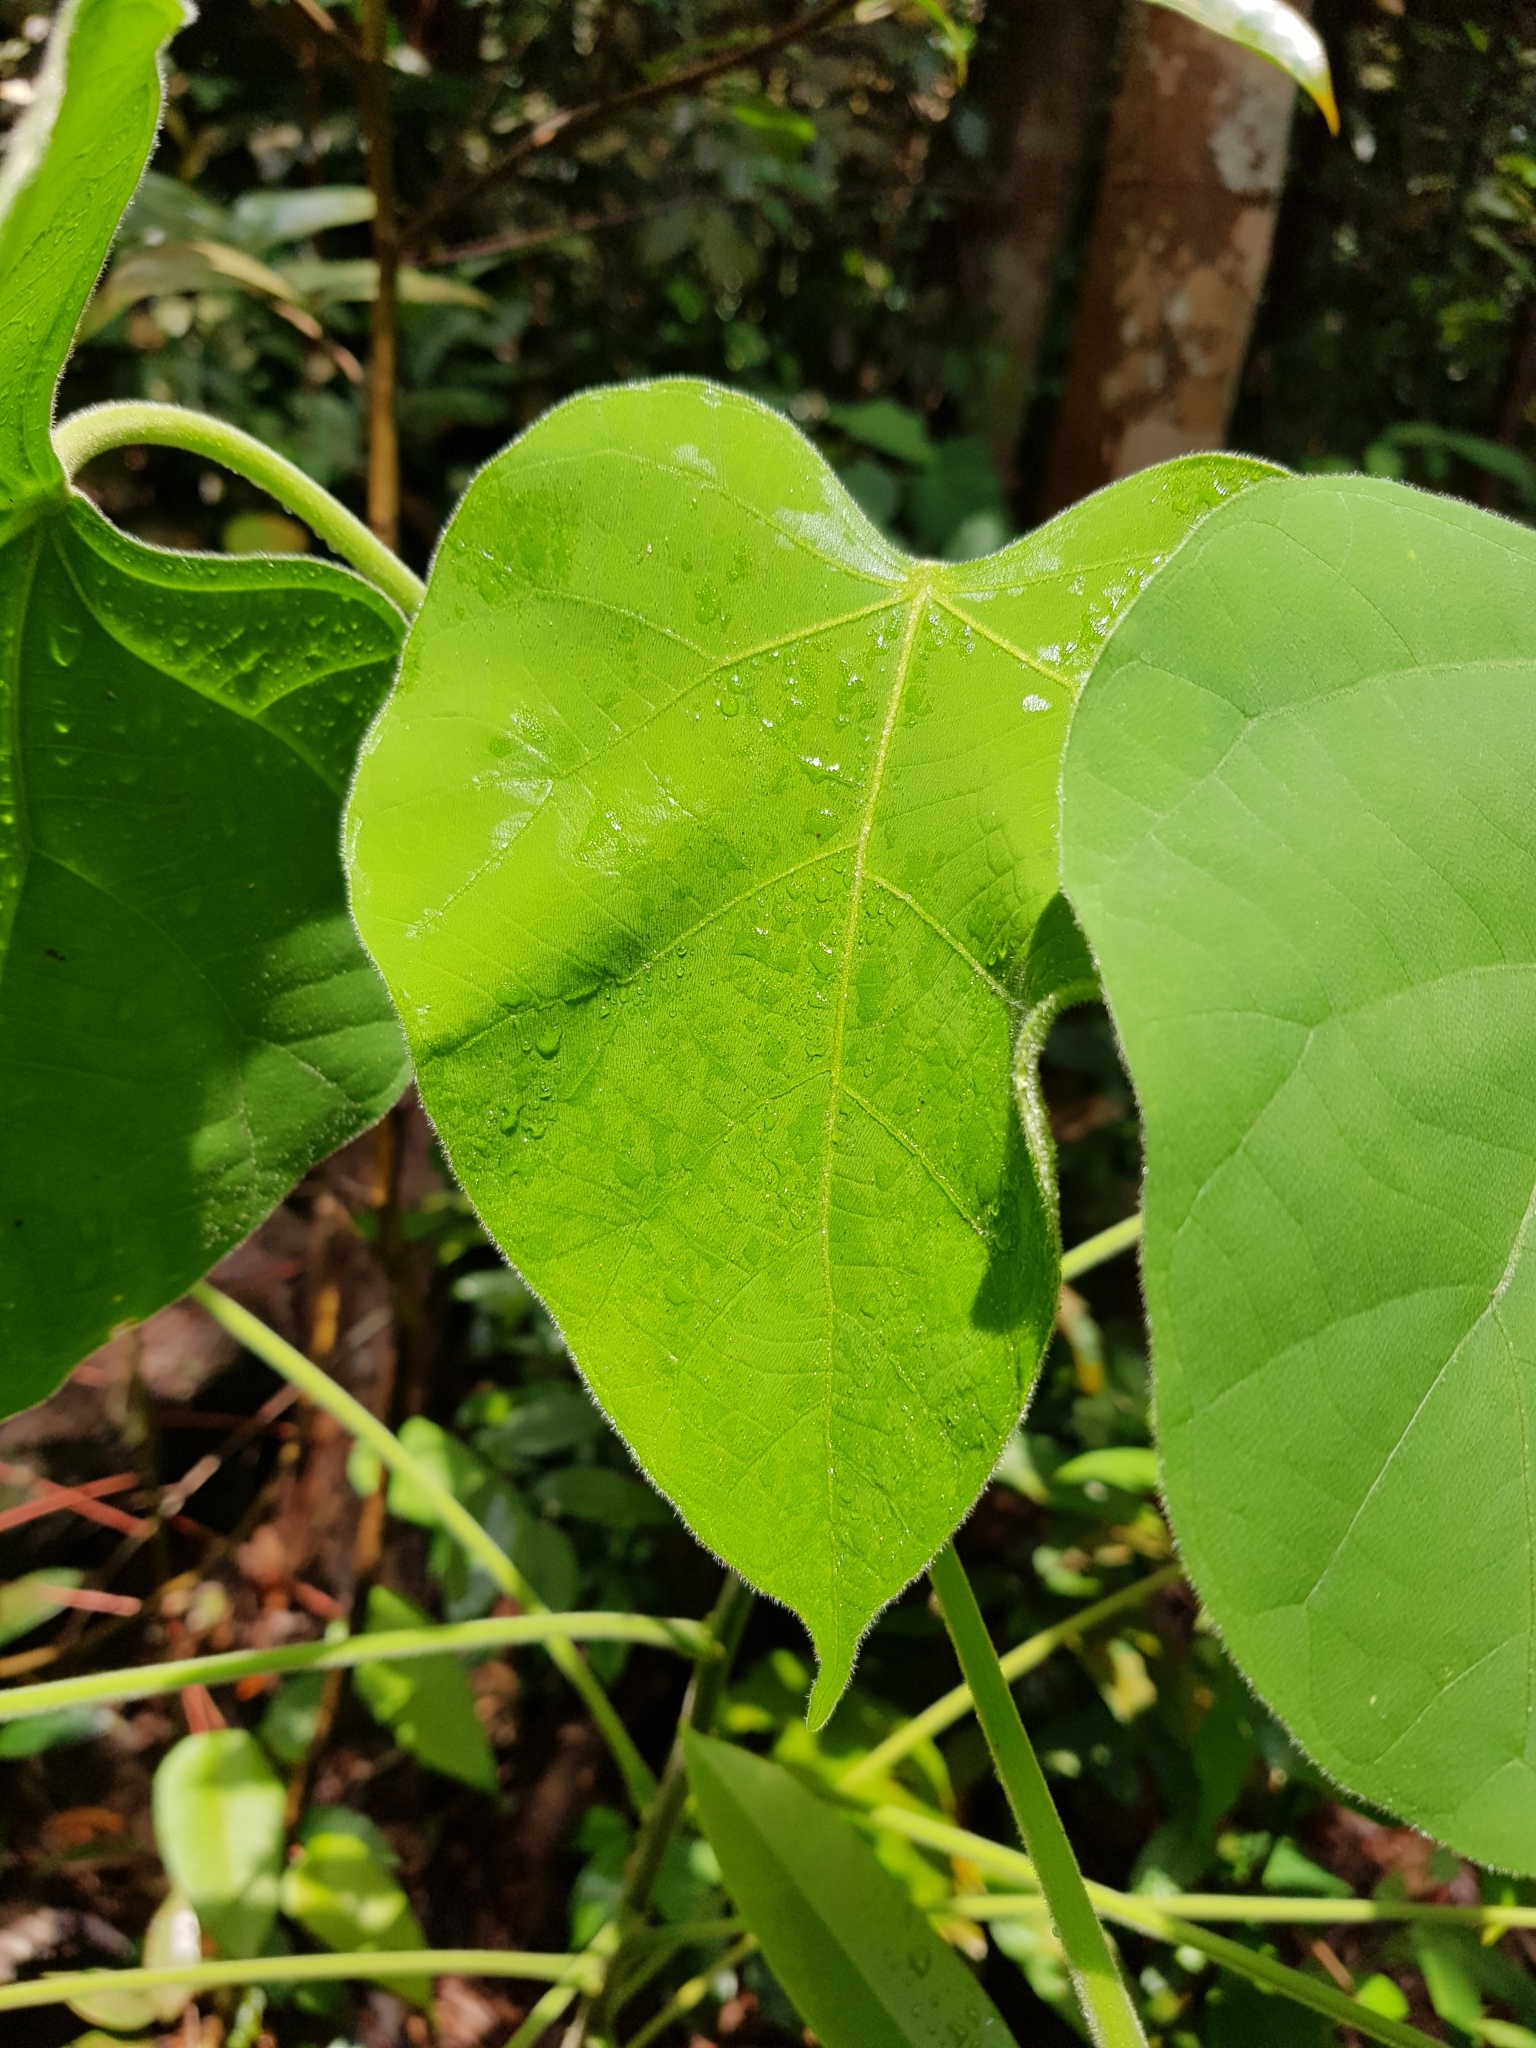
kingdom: Plantae
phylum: Tracheophyta
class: Magnoliopsida
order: Malpighiales
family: Euphorbiaceae
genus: Endospermum
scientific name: Endospermum peltatum
